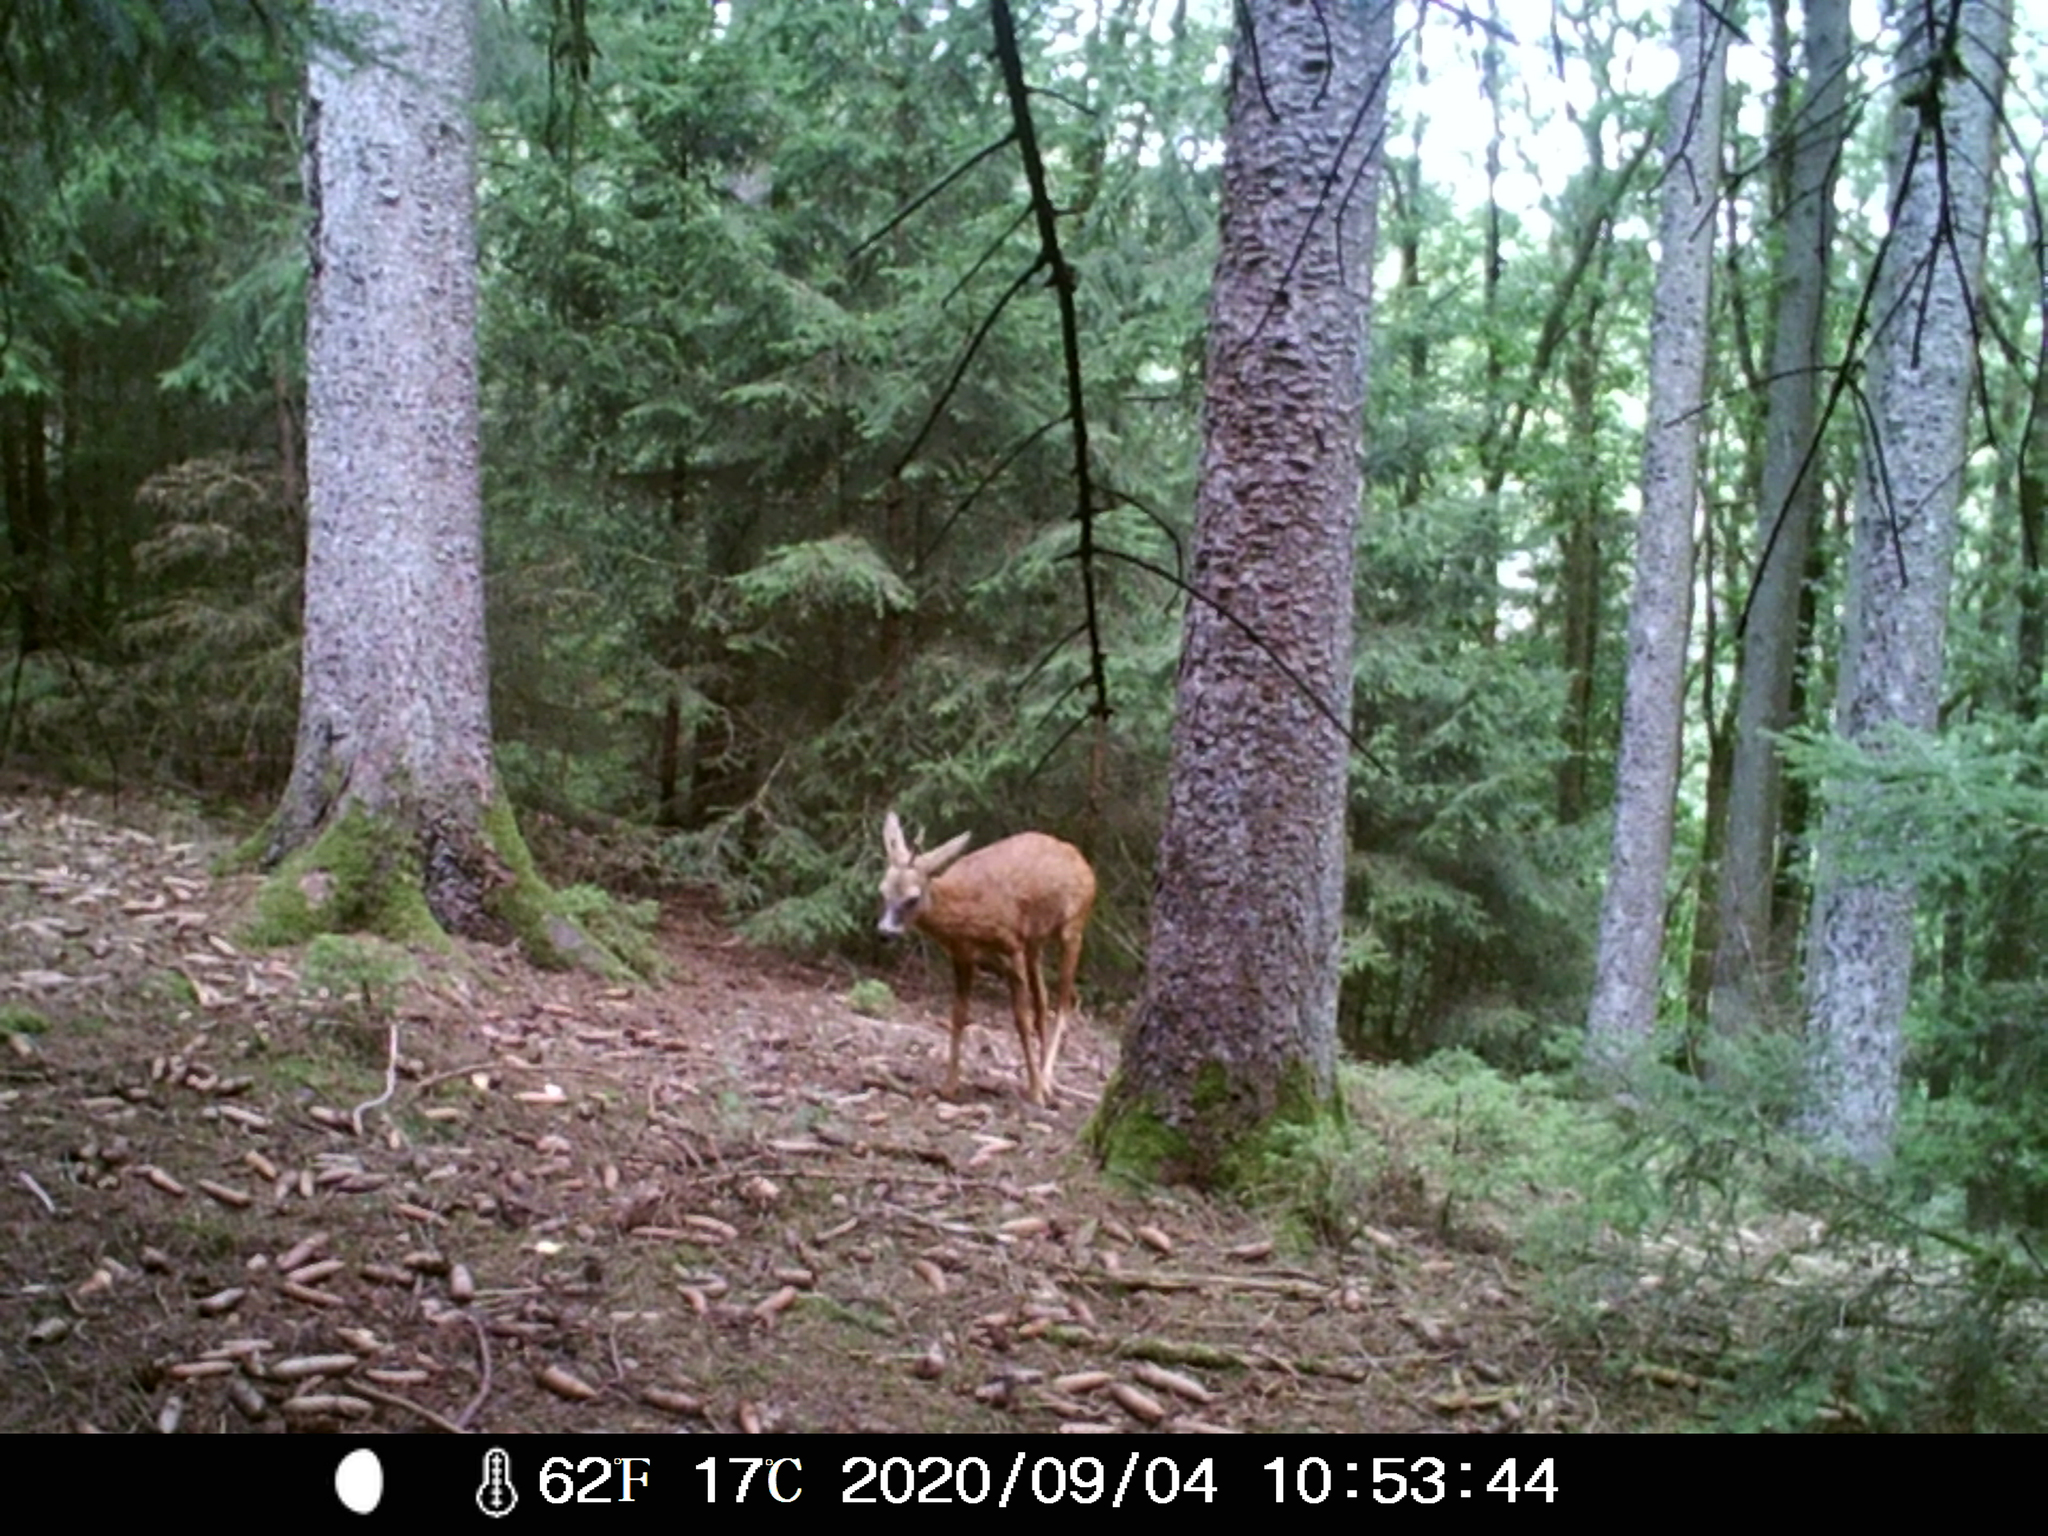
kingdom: Animalia
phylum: Chordata
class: Mammalia
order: Artiodactyla
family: Cervidae
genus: Capreolus
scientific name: Capreolus capreolus
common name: Western roe deer
